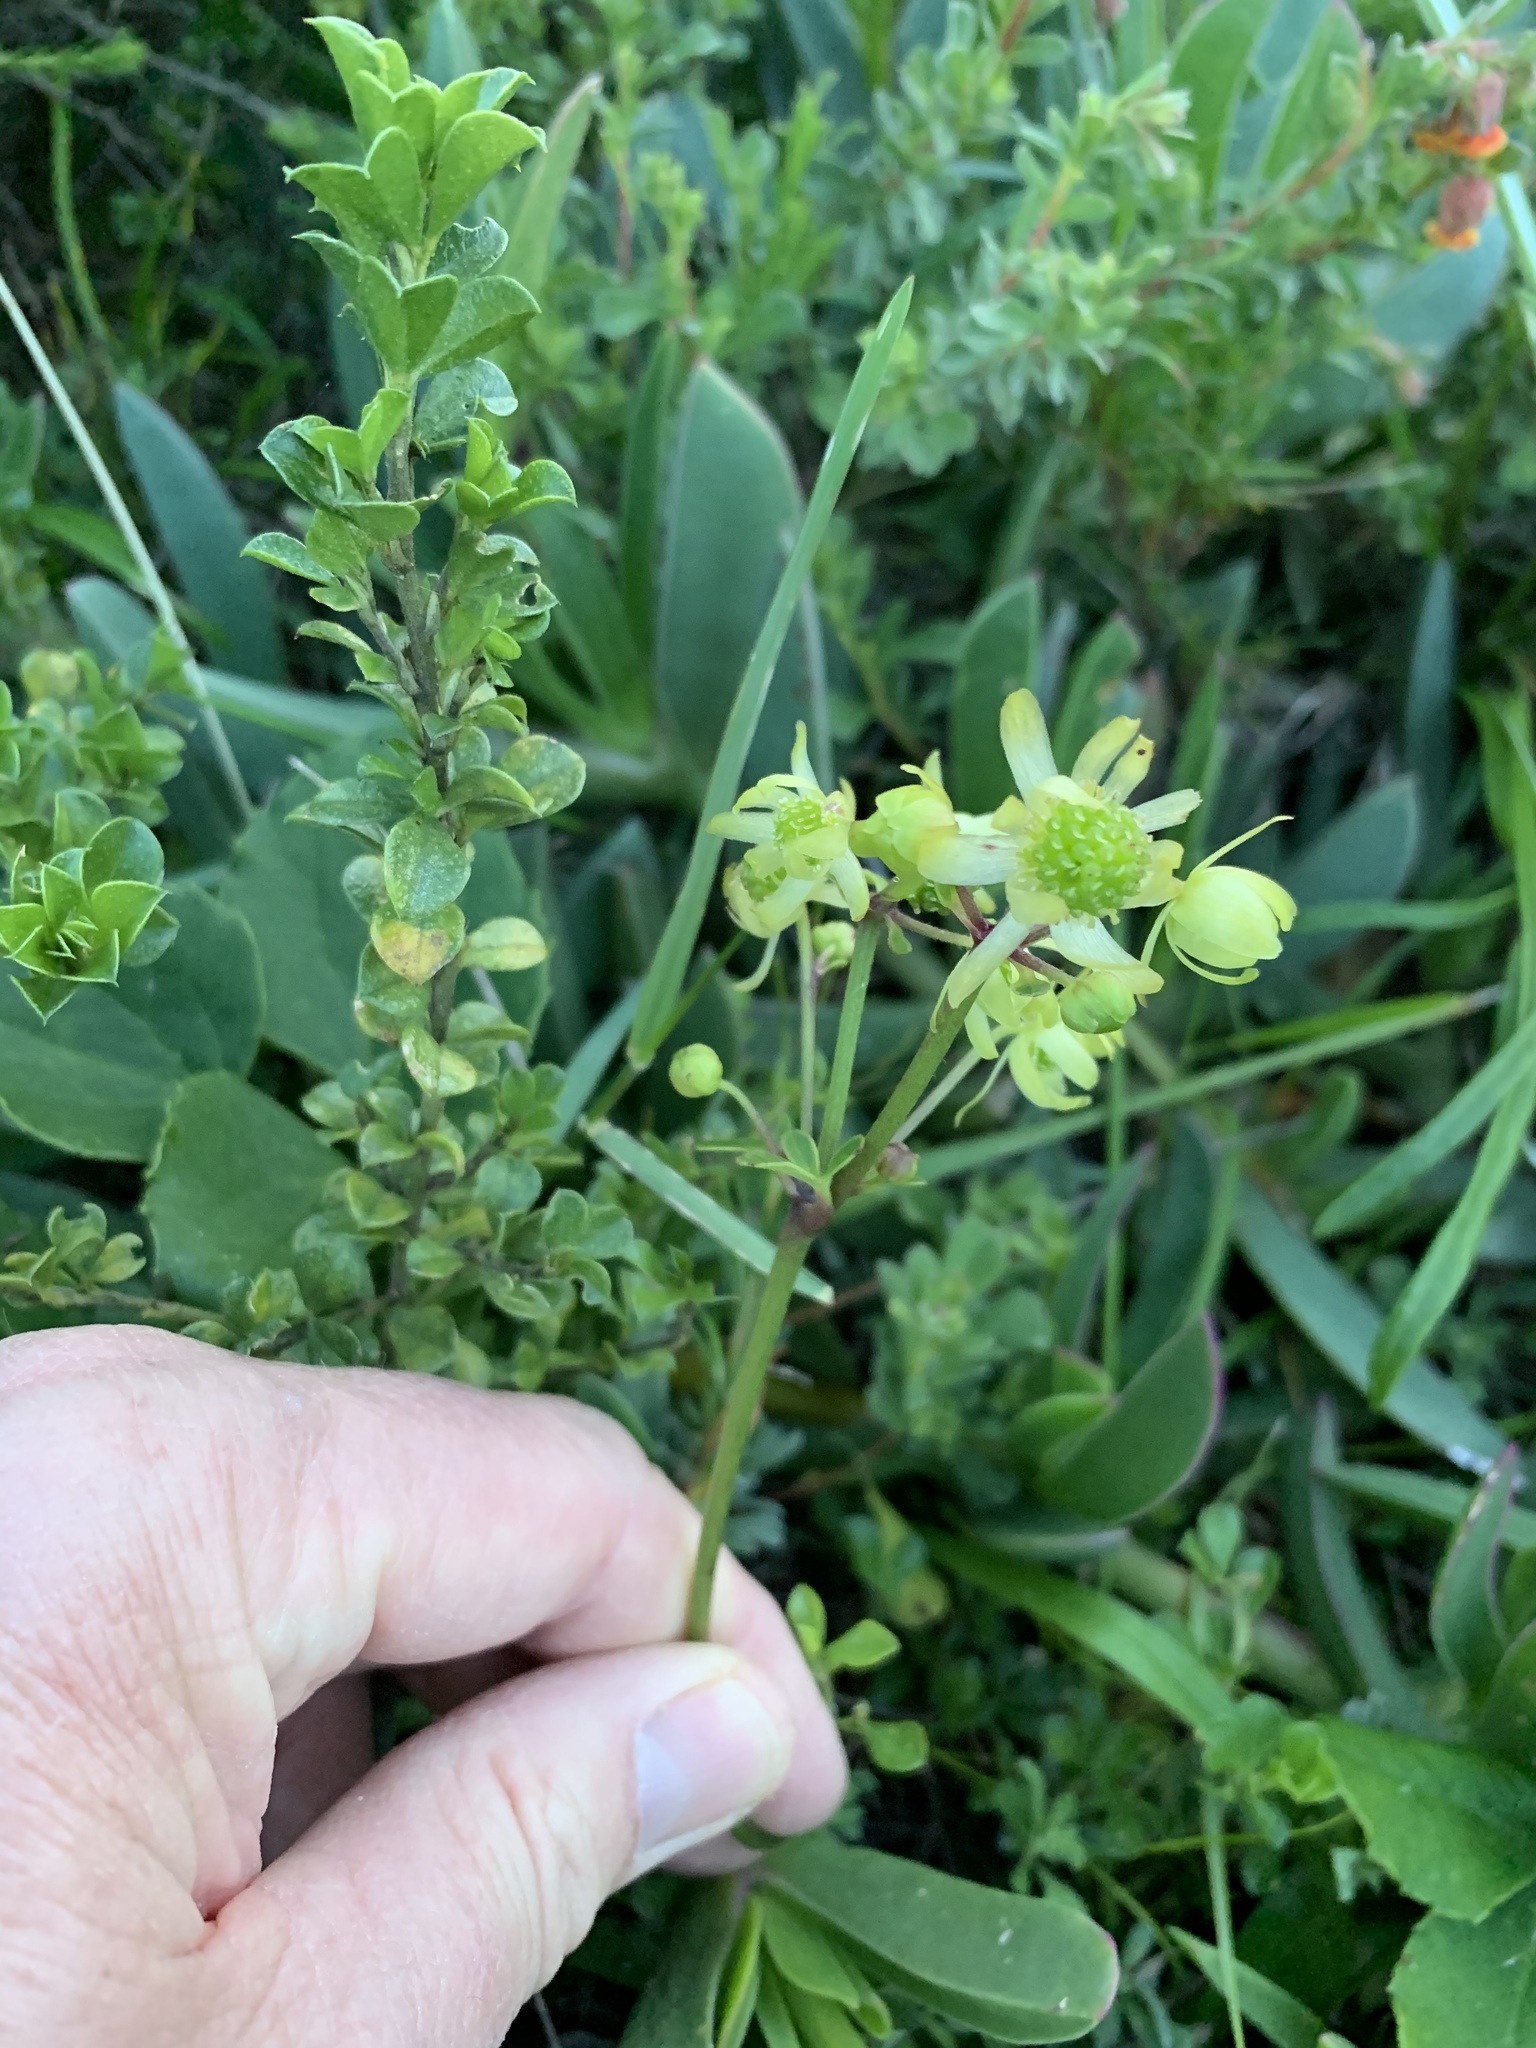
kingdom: Plantae
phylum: Tracheophyta
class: Magnoliopsida
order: Ranunculales
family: Ranunculaceae
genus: Knowltonia
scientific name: Knowltonia vesicatoria
